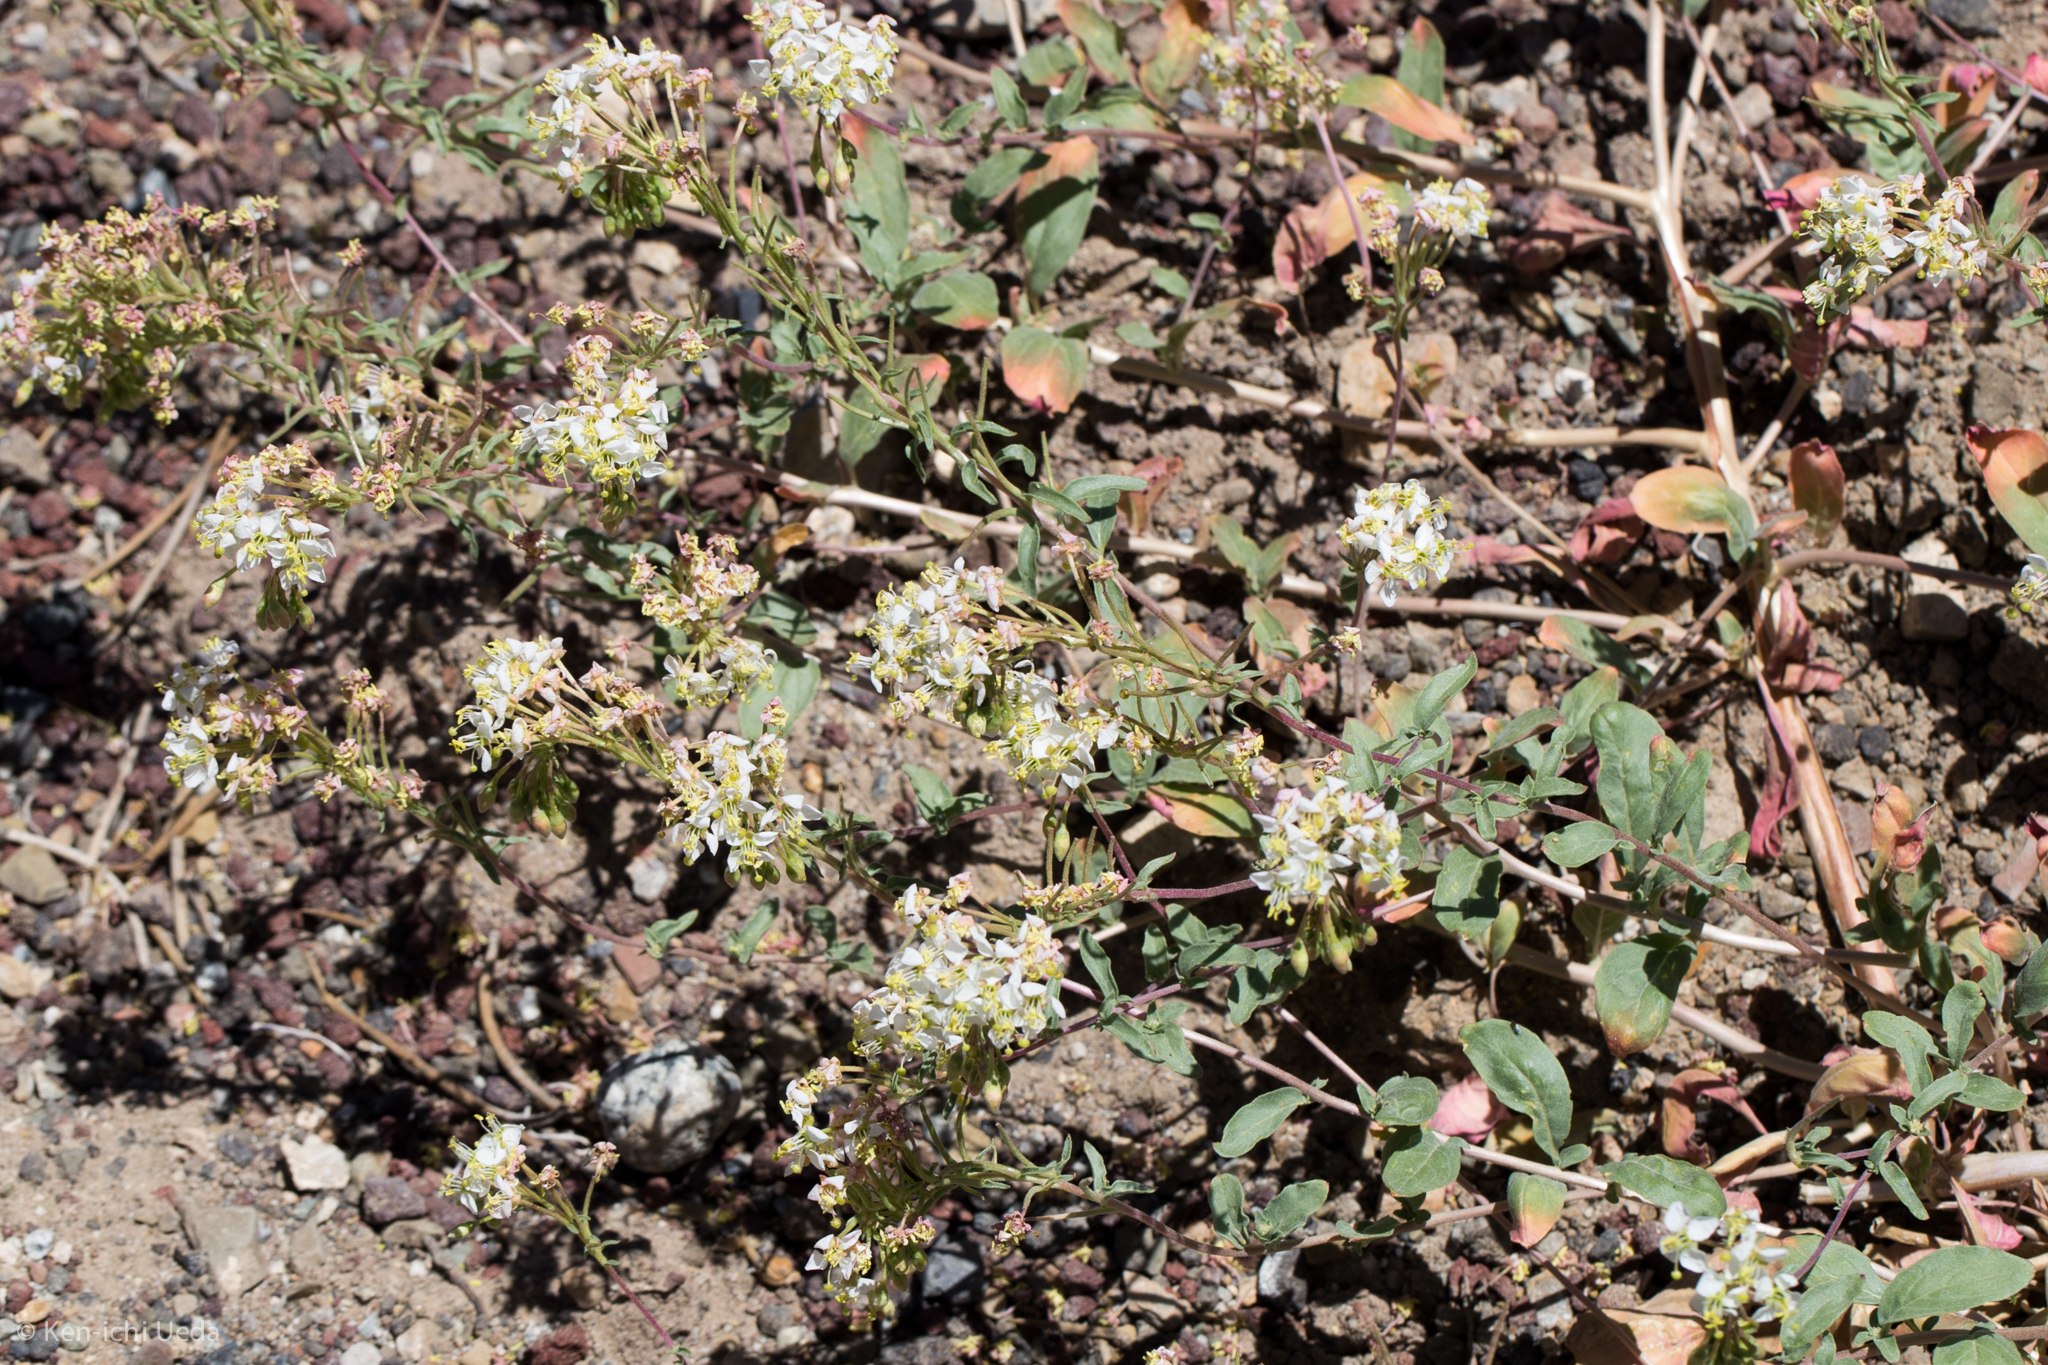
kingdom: Plantae
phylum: Tracheophyta
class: Magnoliopsida
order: Myrtales
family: Onagraceae
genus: Eremothera
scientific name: Eremothera boothii
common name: Booth's evening primrose
